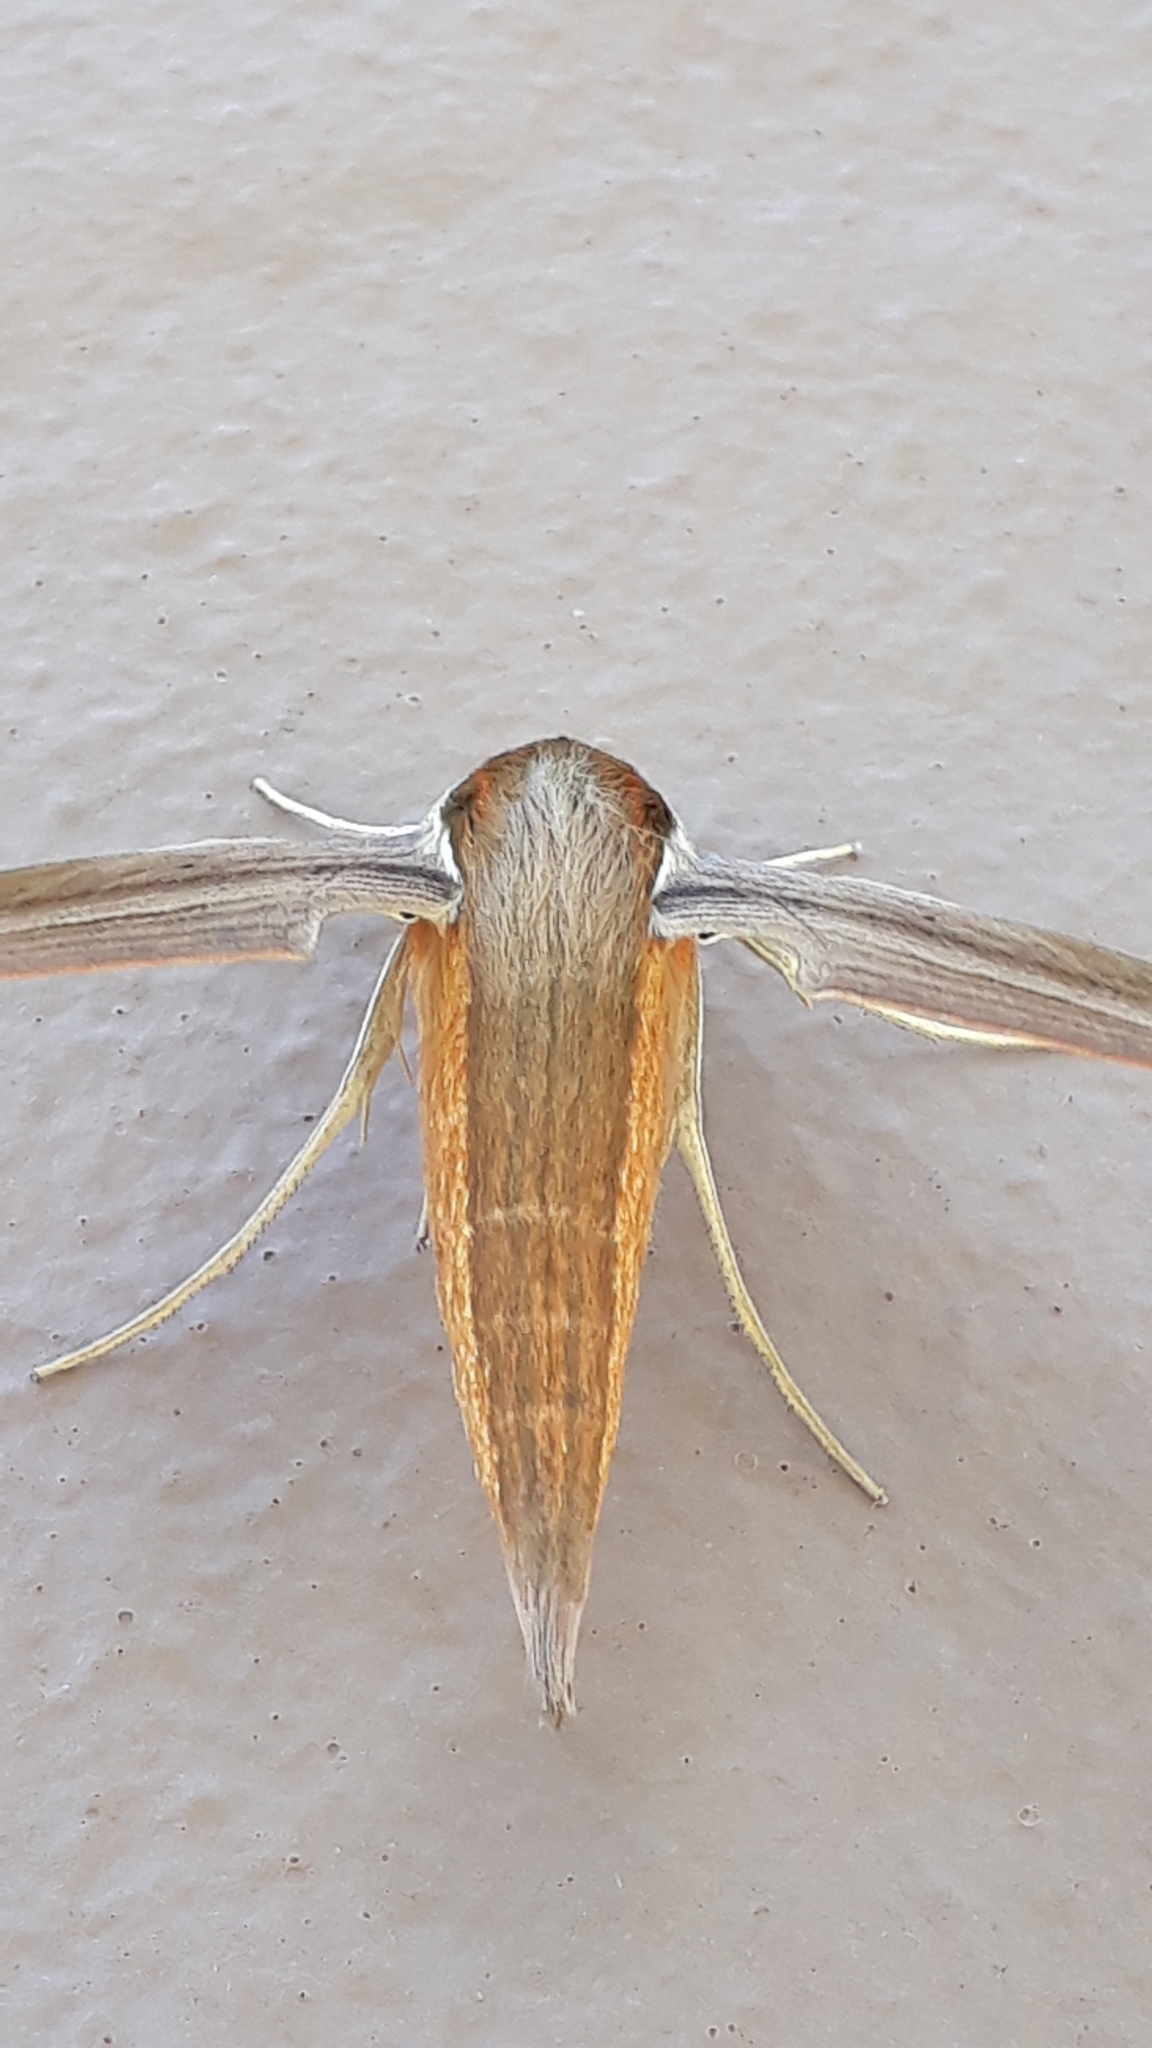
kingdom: Animalia
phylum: Arthropoda
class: Insecta
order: Lepidoptera
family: Sphingidae
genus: Xylophanes
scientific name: Xylophanes tersa
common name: Tersa sphinx
